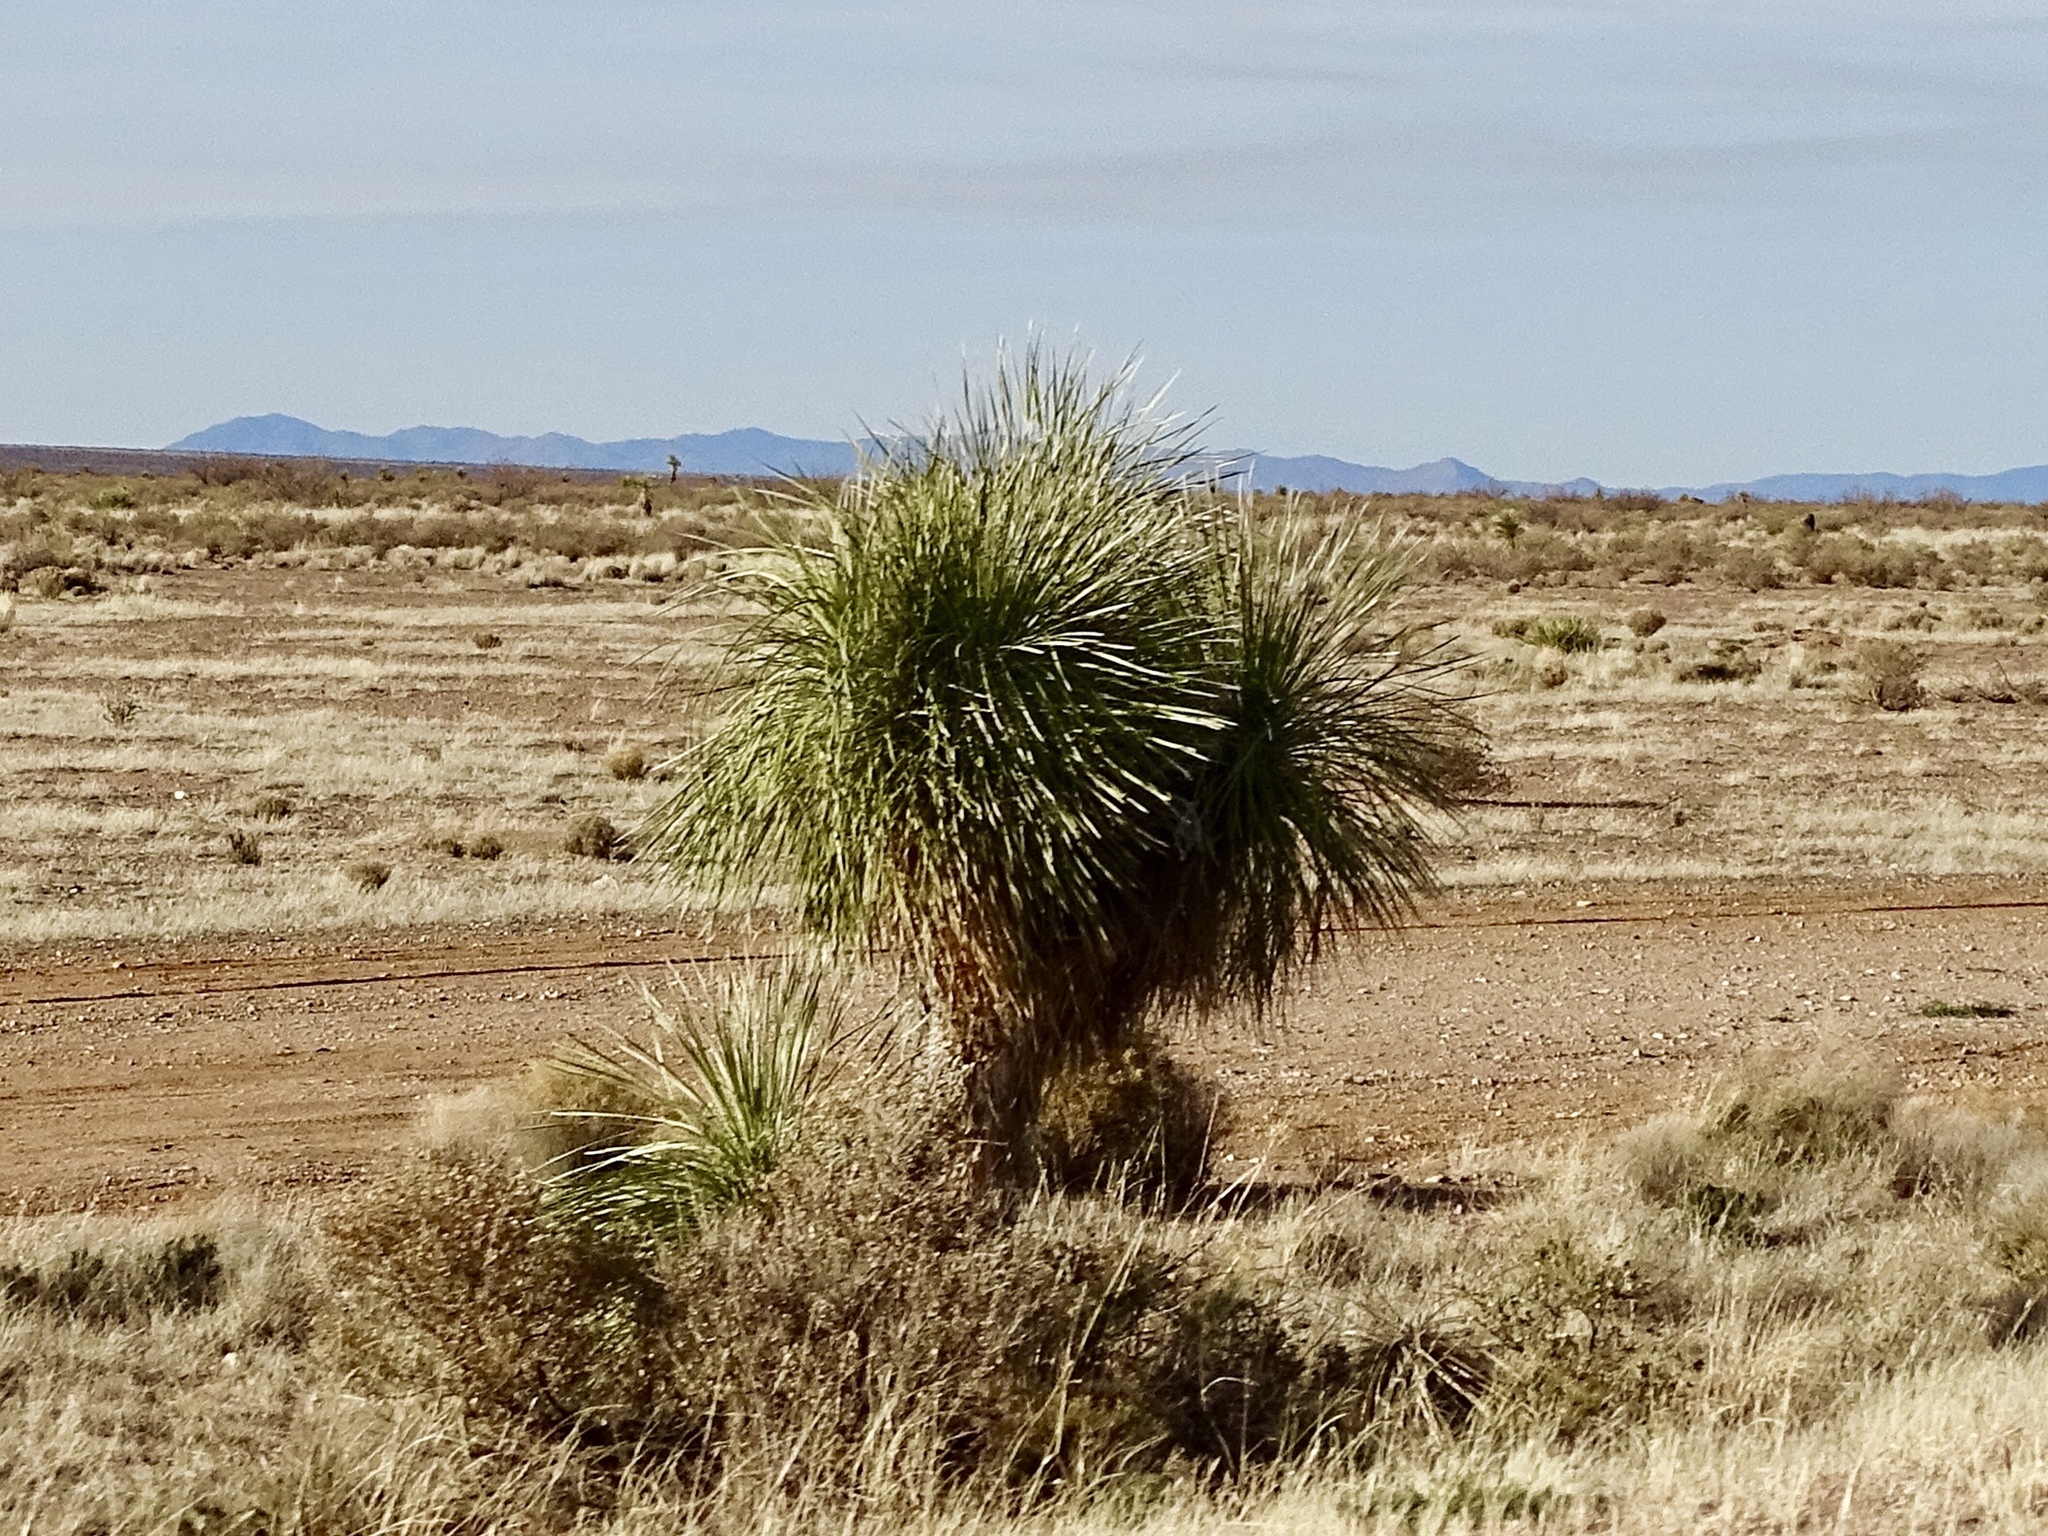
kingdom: Plantae
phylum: Tracheophyta
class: Liliopsida
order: Asparagales
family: Asparagaceae
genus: Yucca
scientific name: Yucca elata
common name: Palmella
